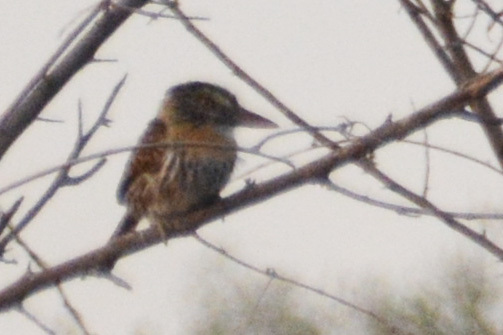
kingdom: Animalia
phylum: Chordata
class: Aves
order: Piciformes
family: Bucconidae
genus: Nystalus
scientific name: Nystalus maculatus
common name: Caatinga puffbird
